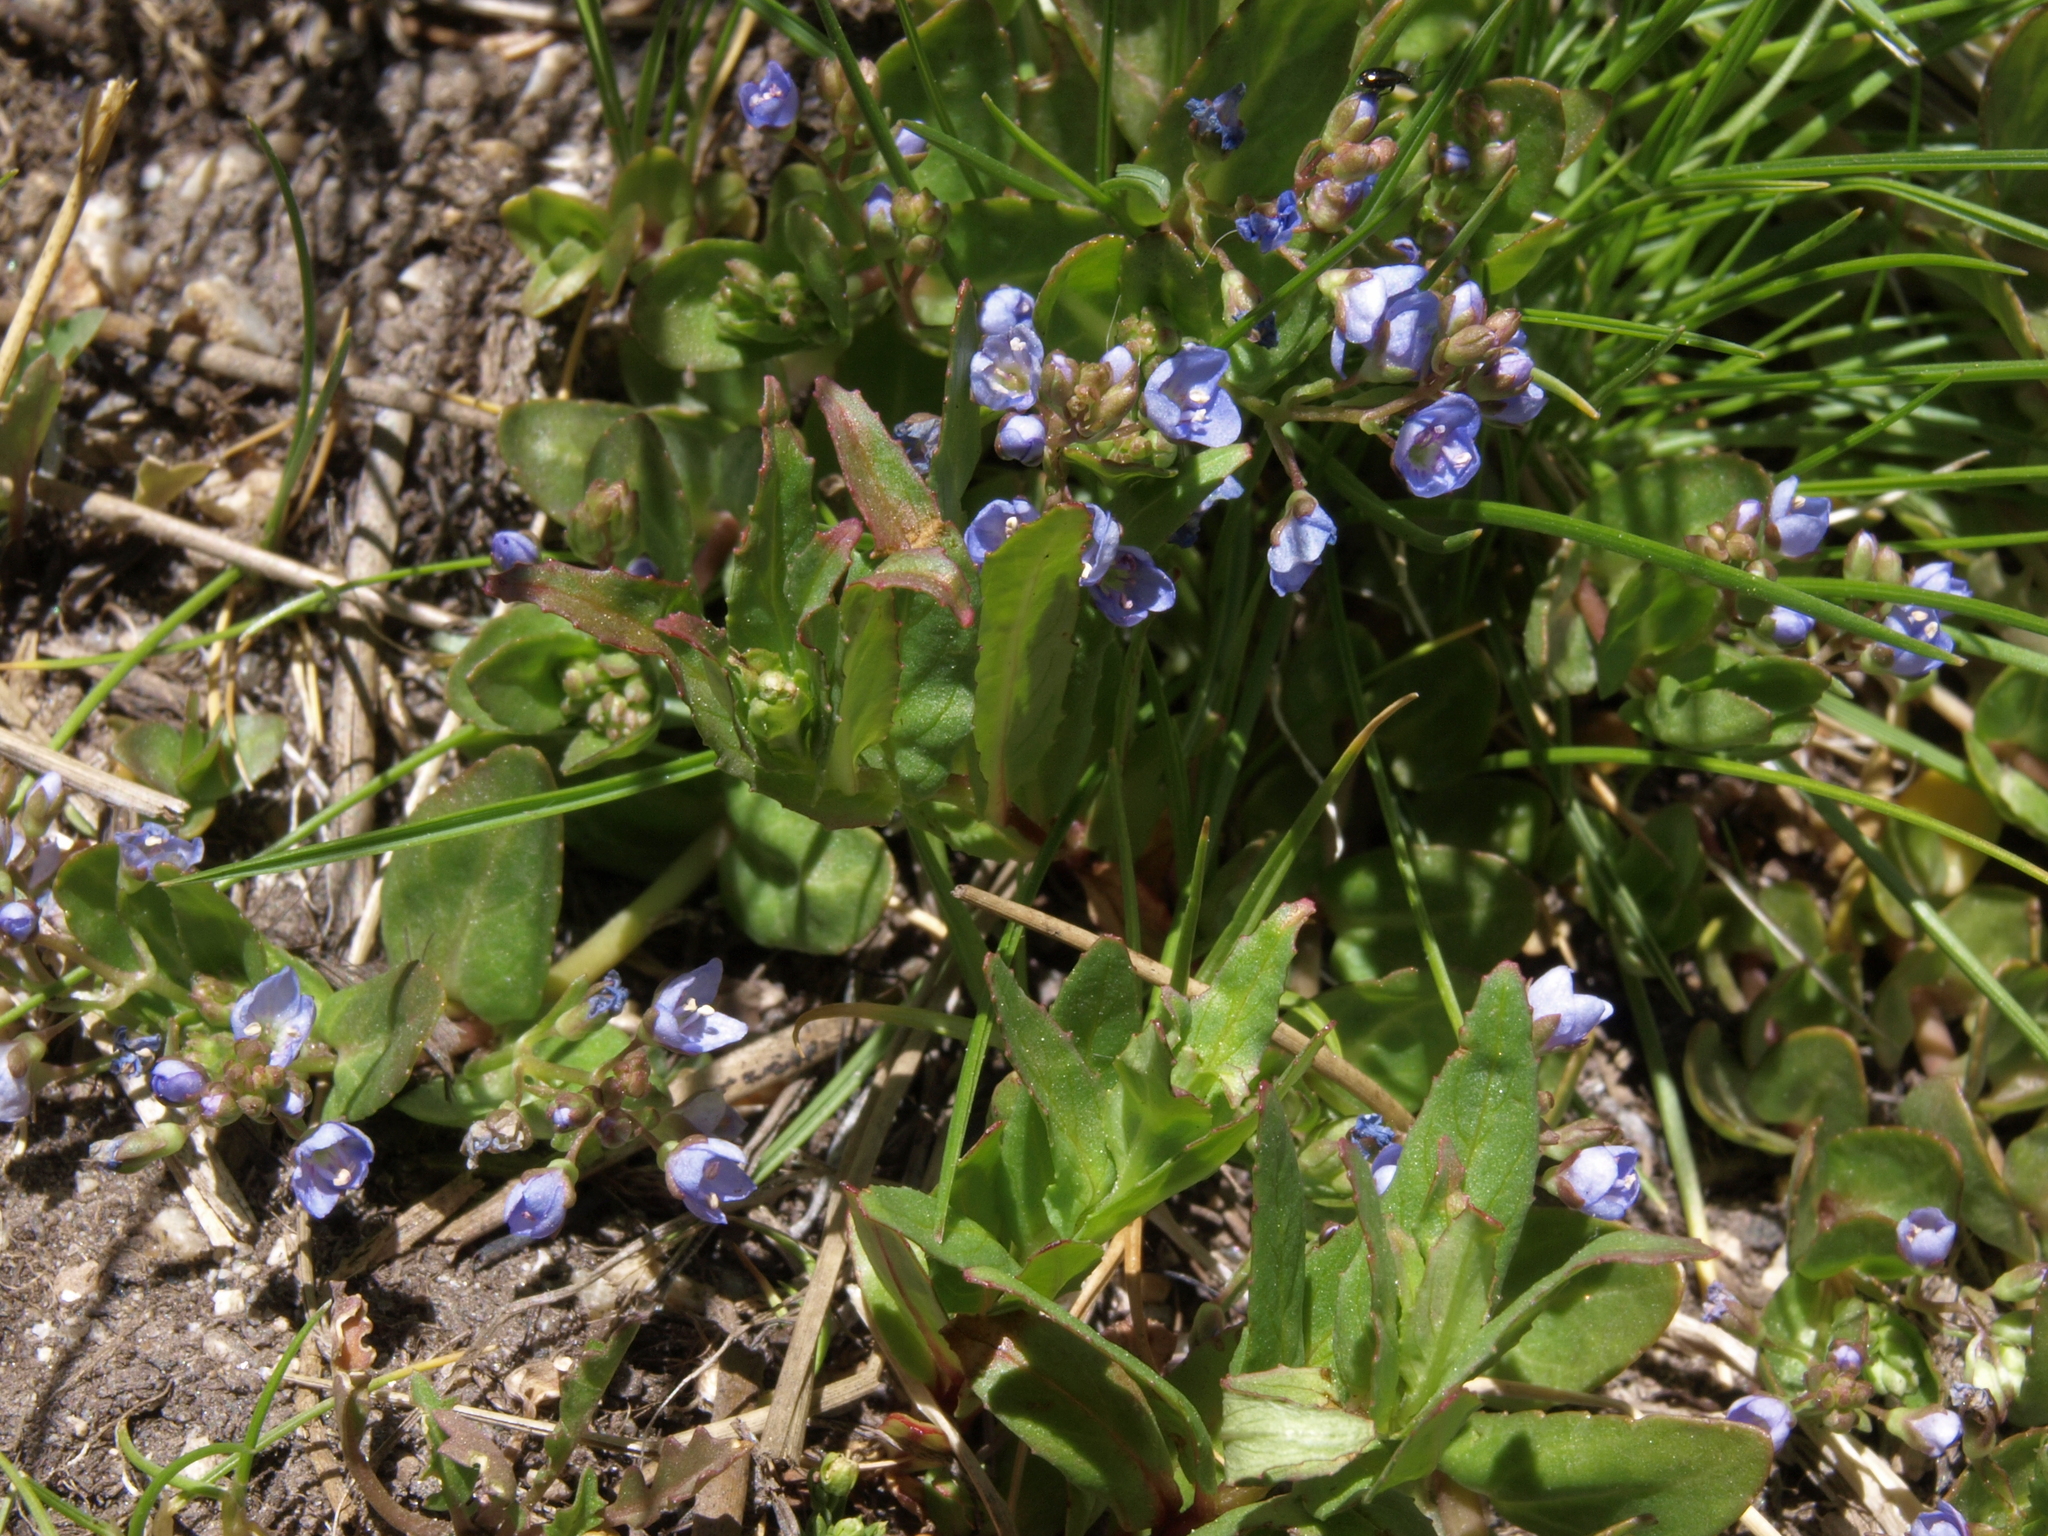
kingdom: Plantae
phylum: Tracheophyta
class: Magnoliopsida
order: Lamiales
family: Plantaginaceae
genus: Veronica
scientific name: Veronica americana
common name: American brooklime
